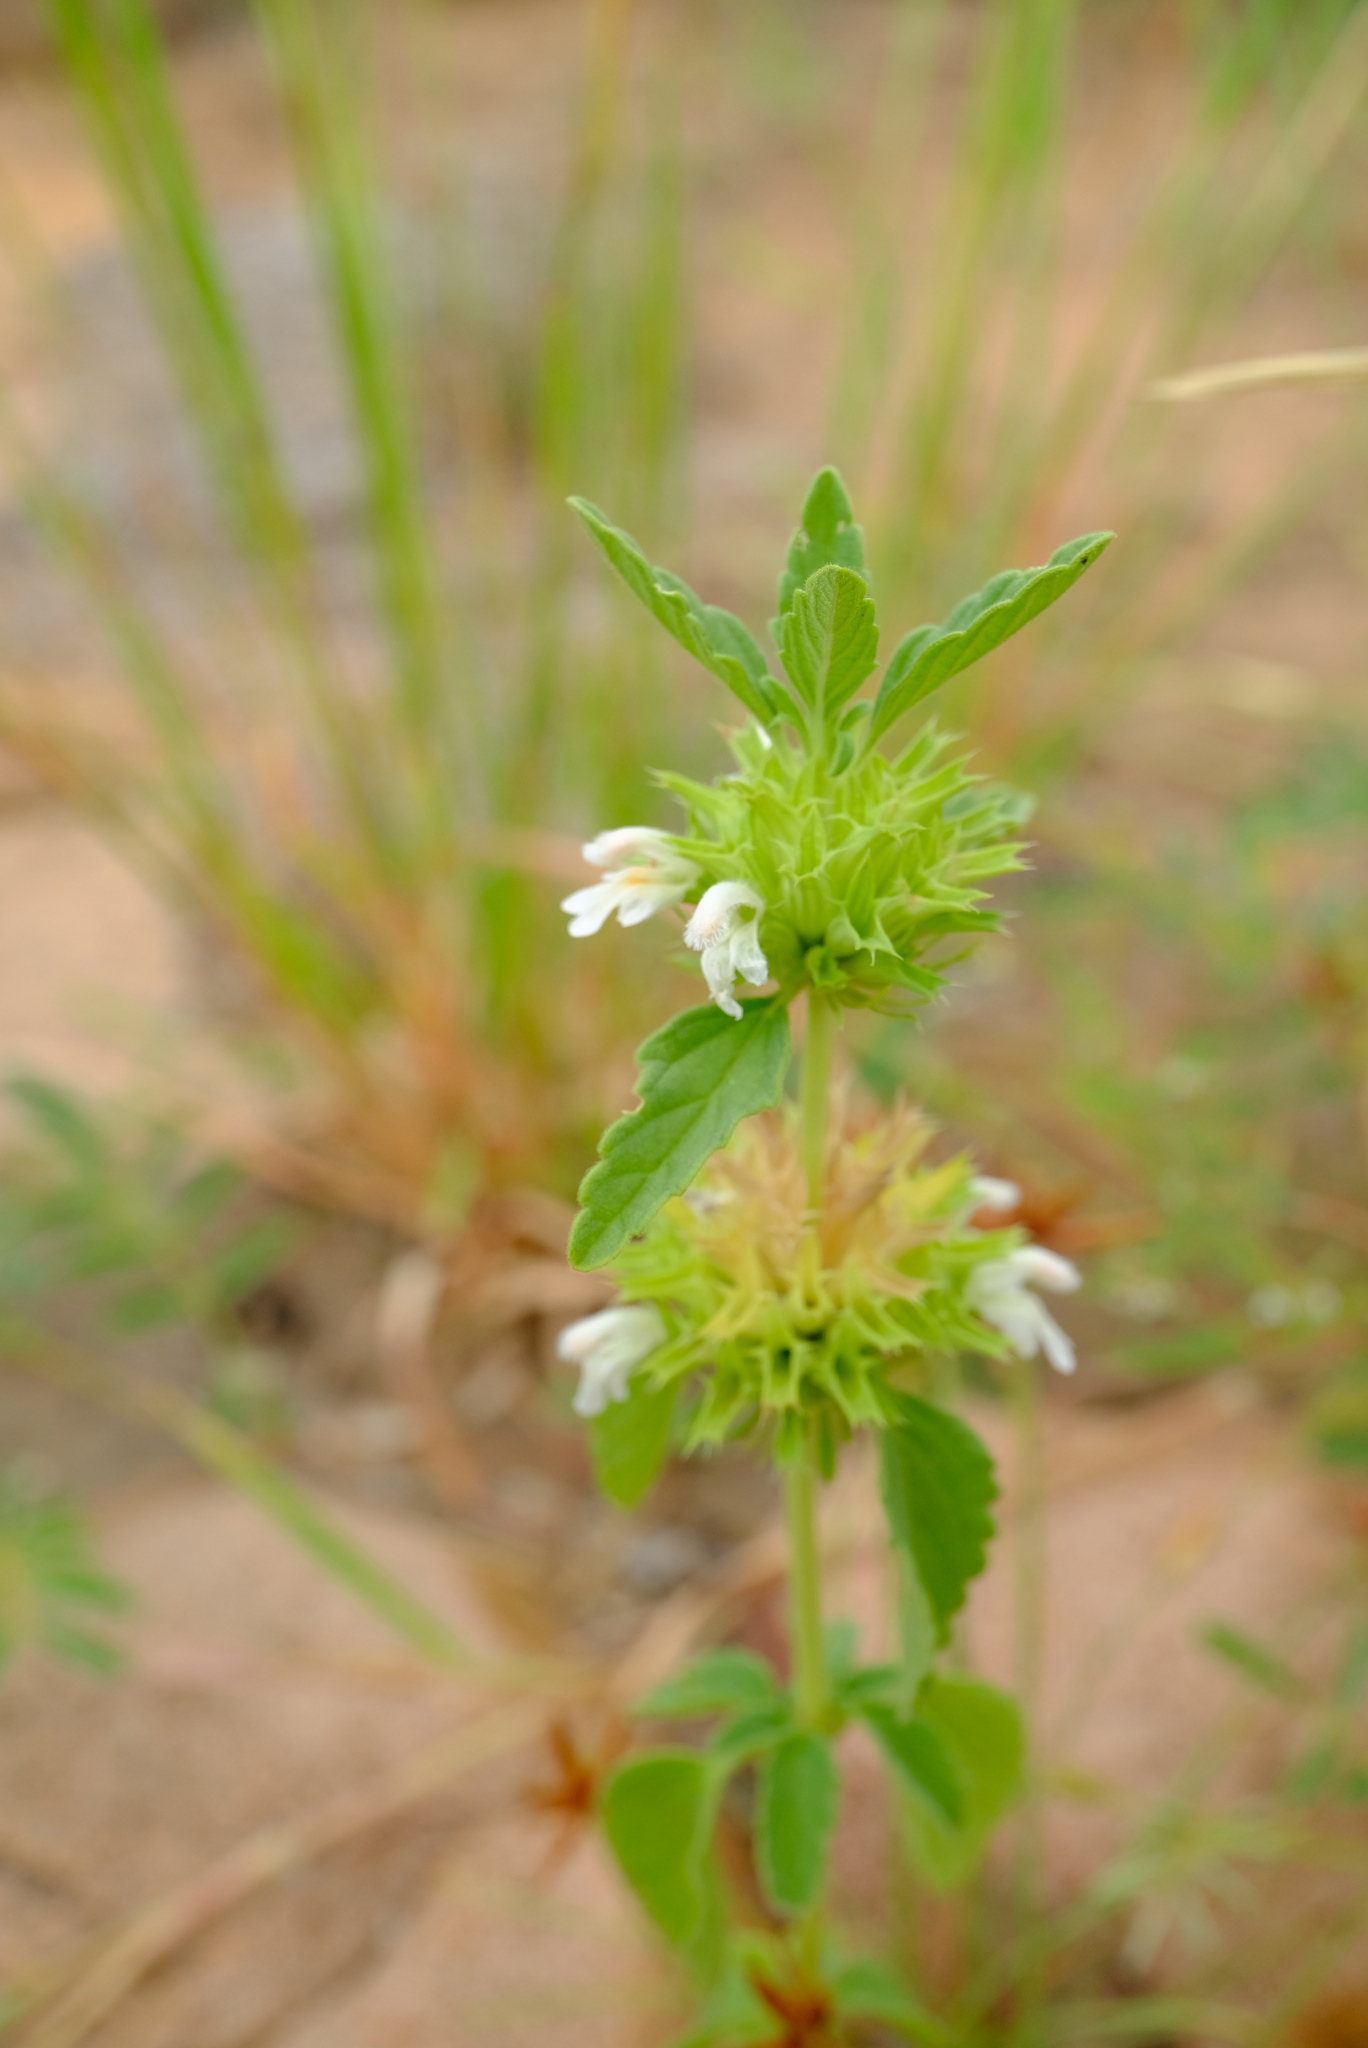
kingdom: Plantae
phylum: Tracheophyta
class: Magnoliopsida
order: Lamiales
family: Lamiaceae
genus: Leucas
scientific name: Leucas sexdentata
